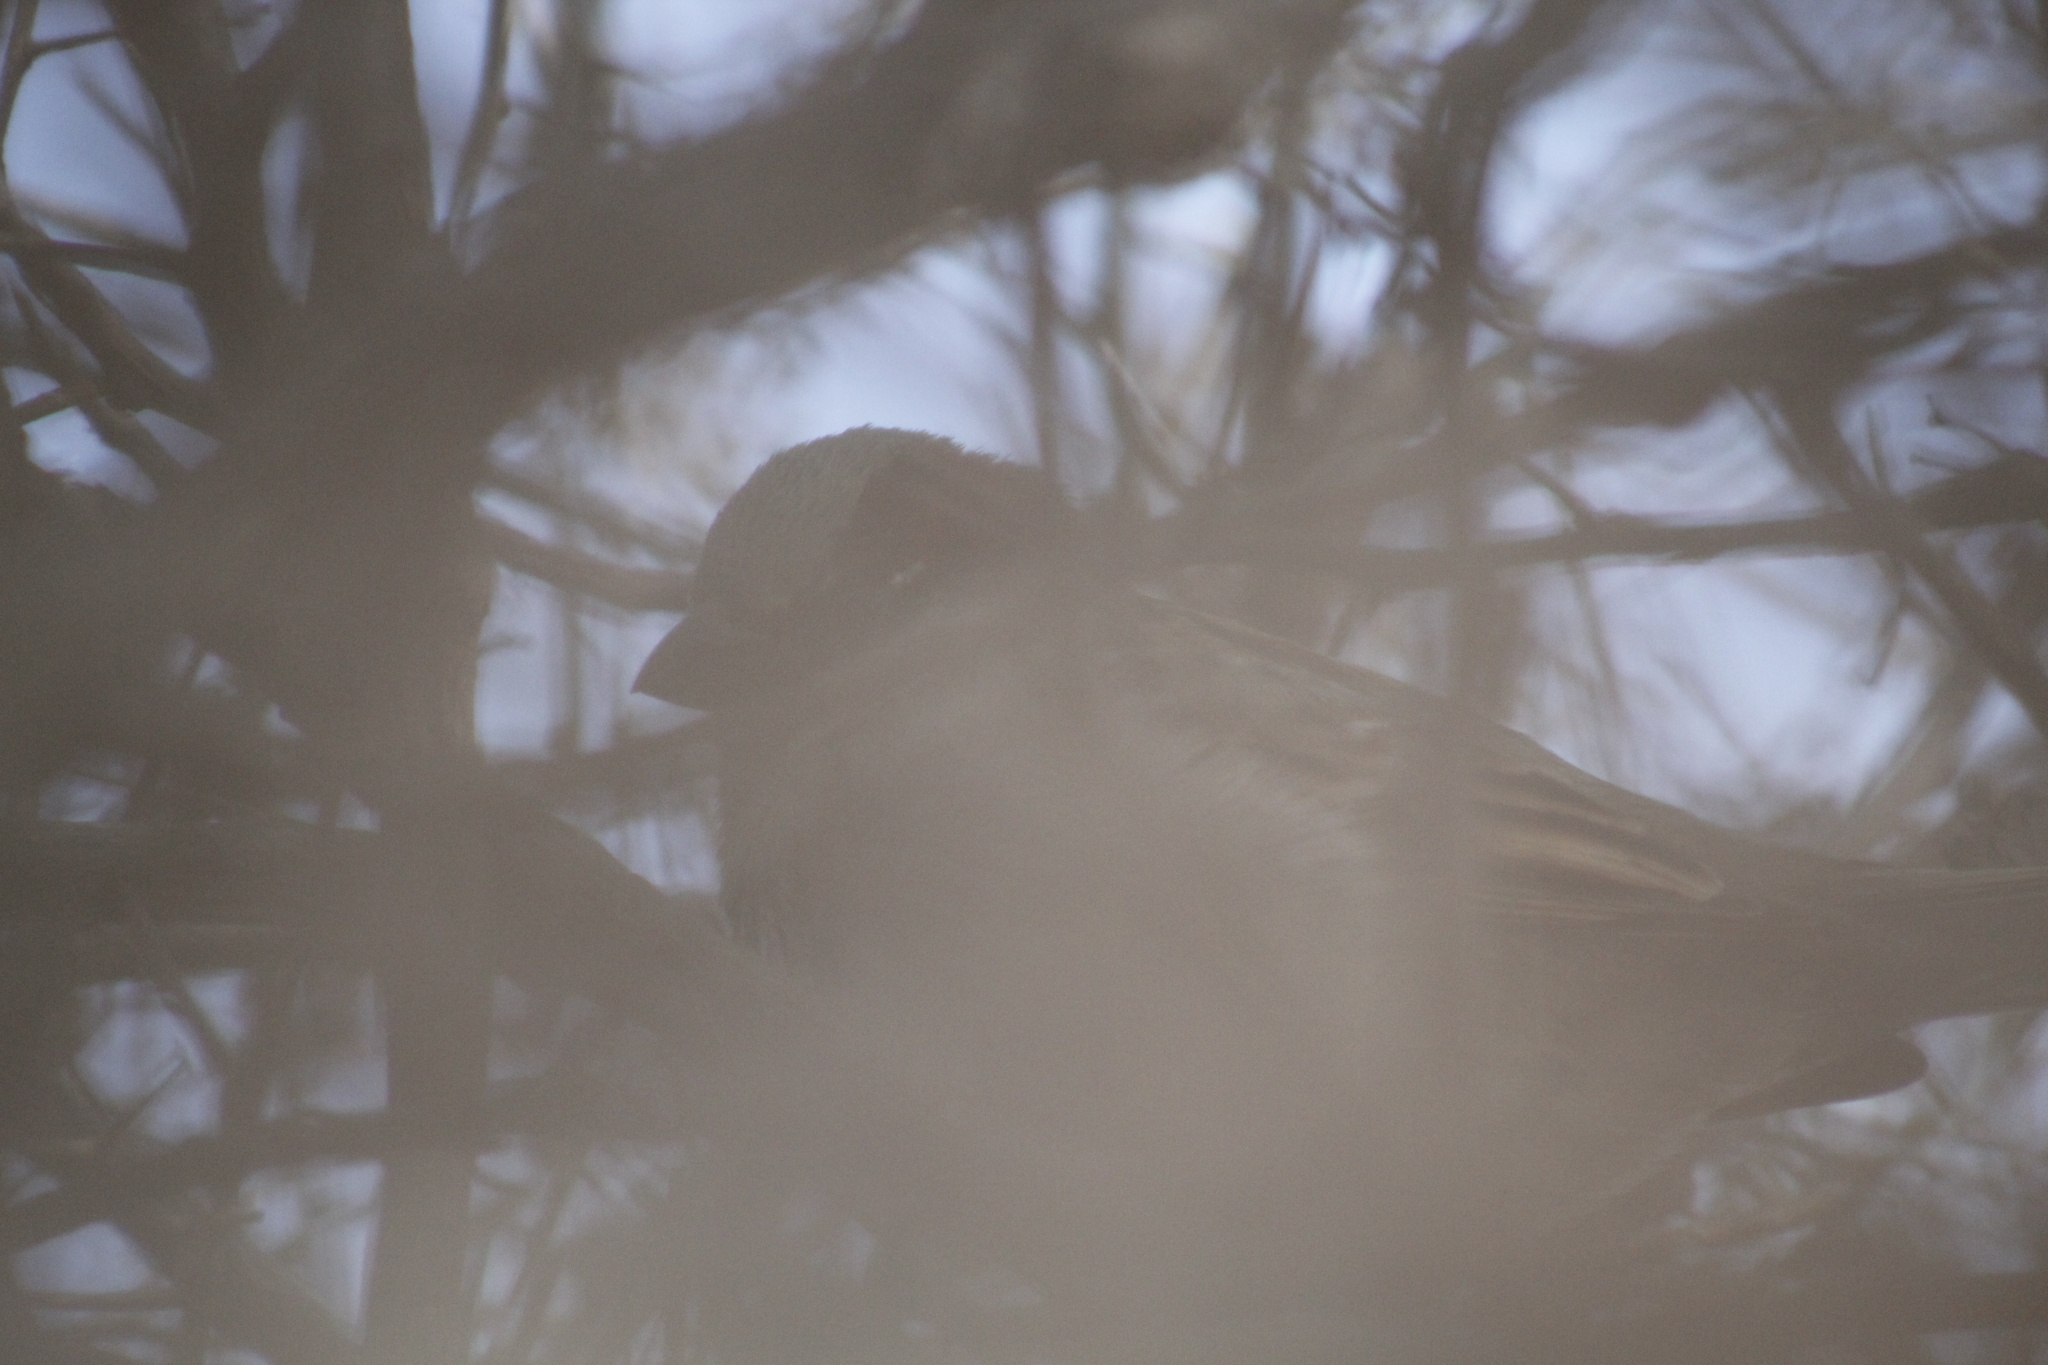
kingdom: Animalia
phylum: Chordata
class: Aves
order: Passeriformes
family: Passeridae
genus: Passer
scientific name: Passer domesticus
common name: House sparrow
